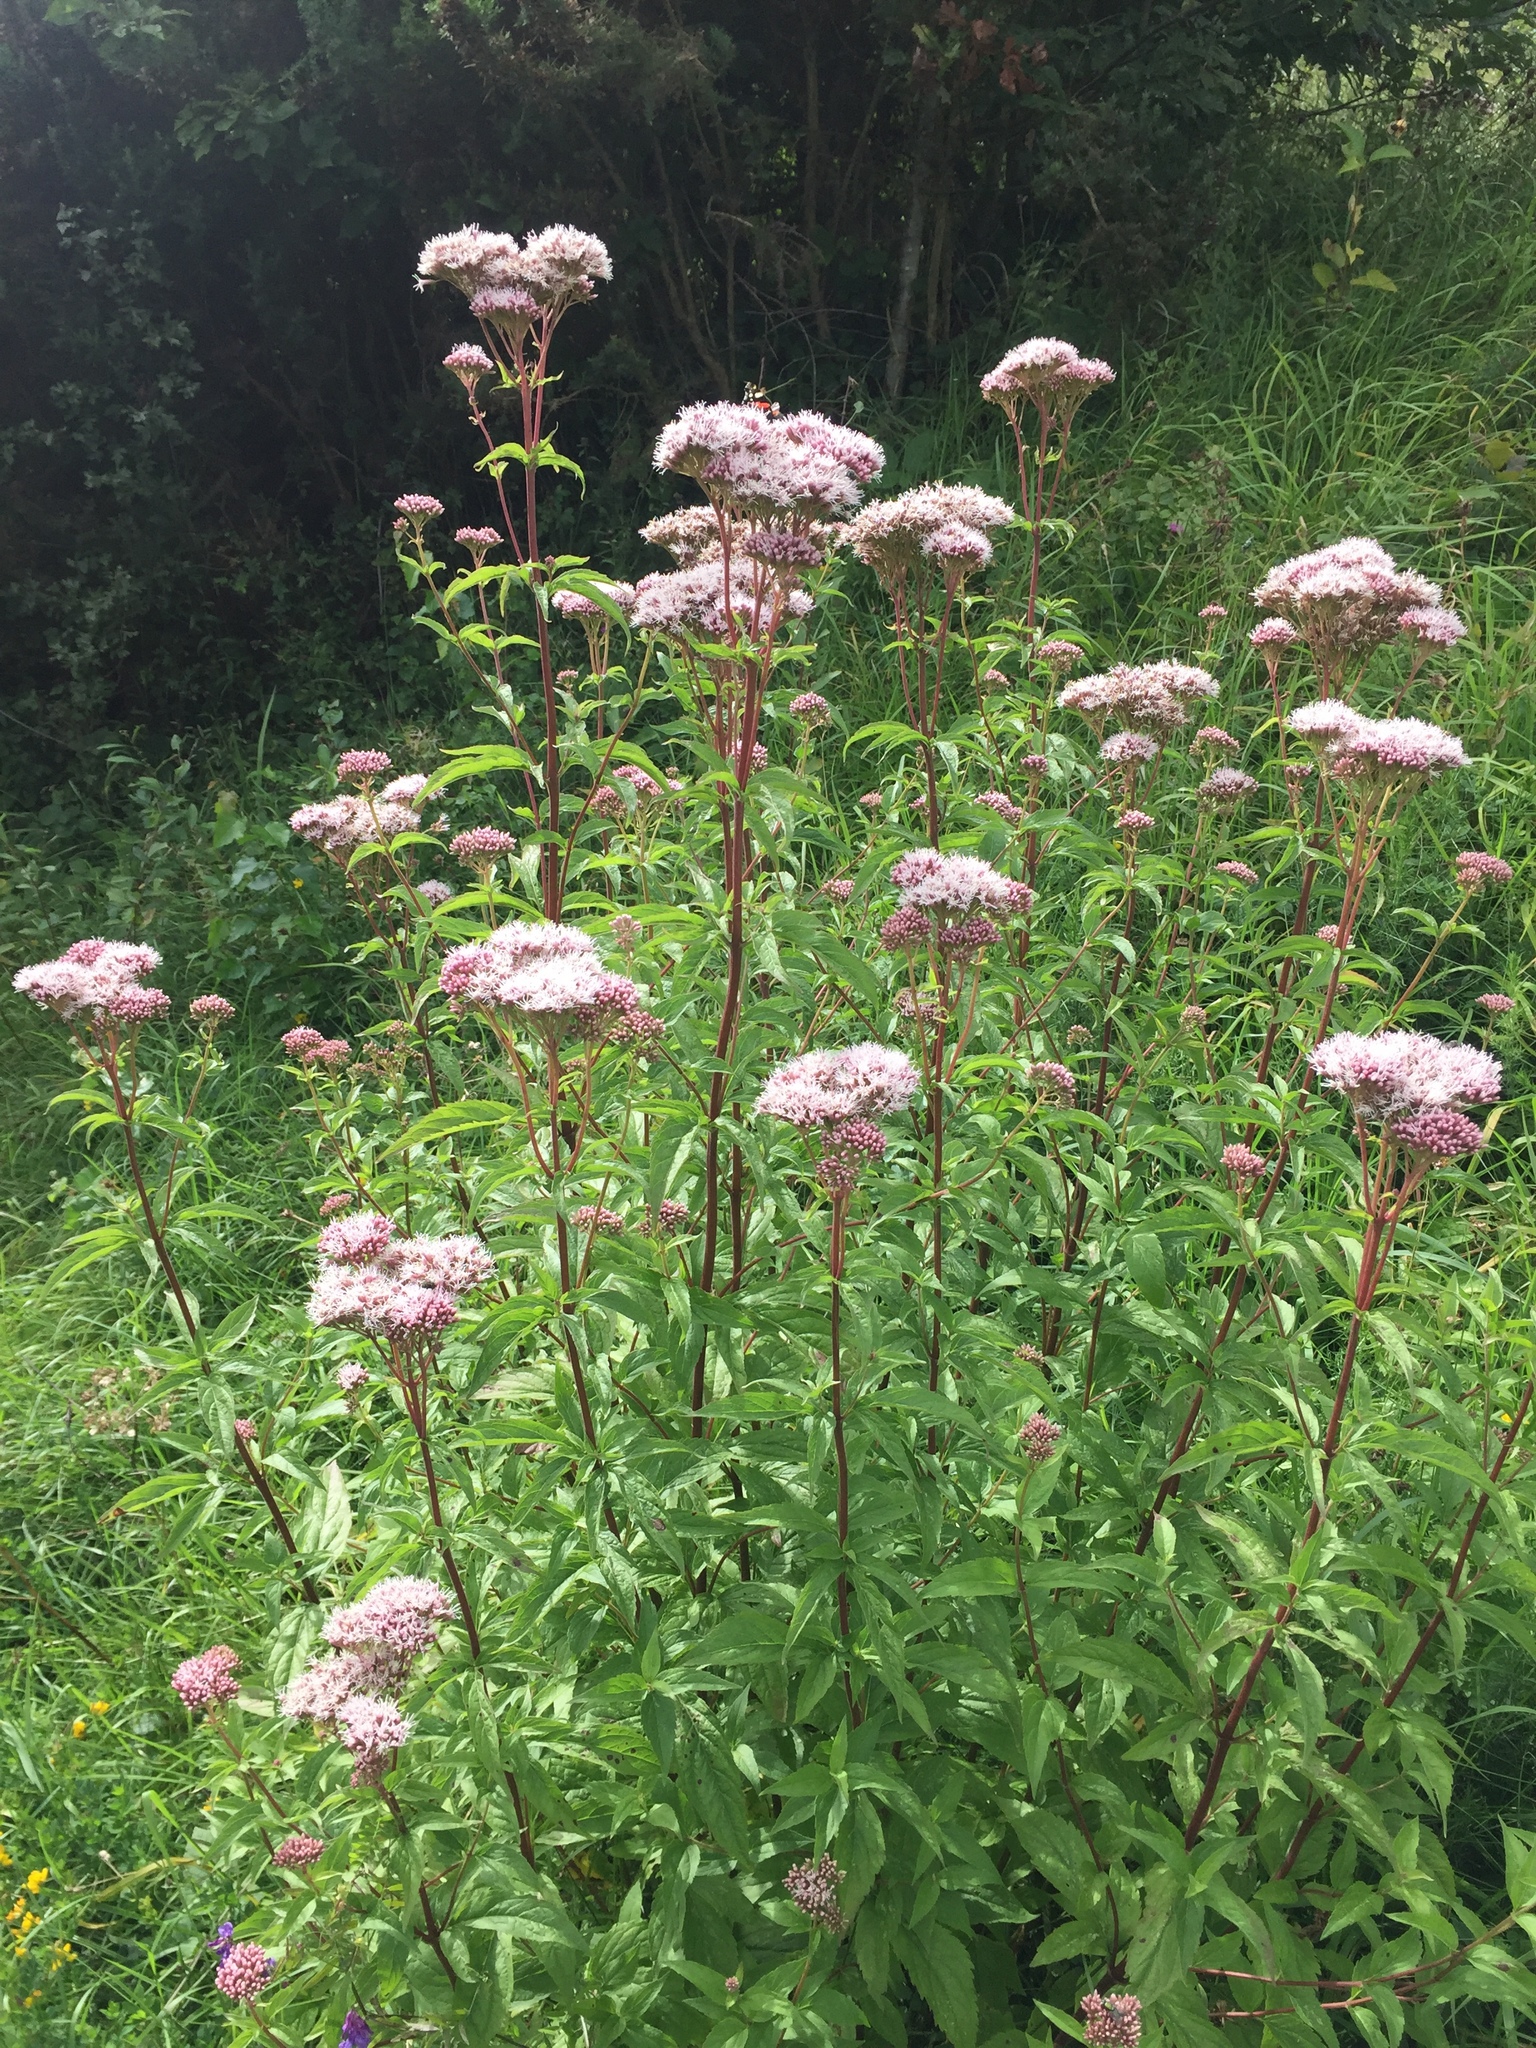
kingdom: Plantae
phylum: Tracheophyta
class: Magnoliopsida
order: Asterales
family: Asteraceae
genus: Eupatorium
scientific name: Eupatorium cannabinum
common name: Hemp-agrimony
